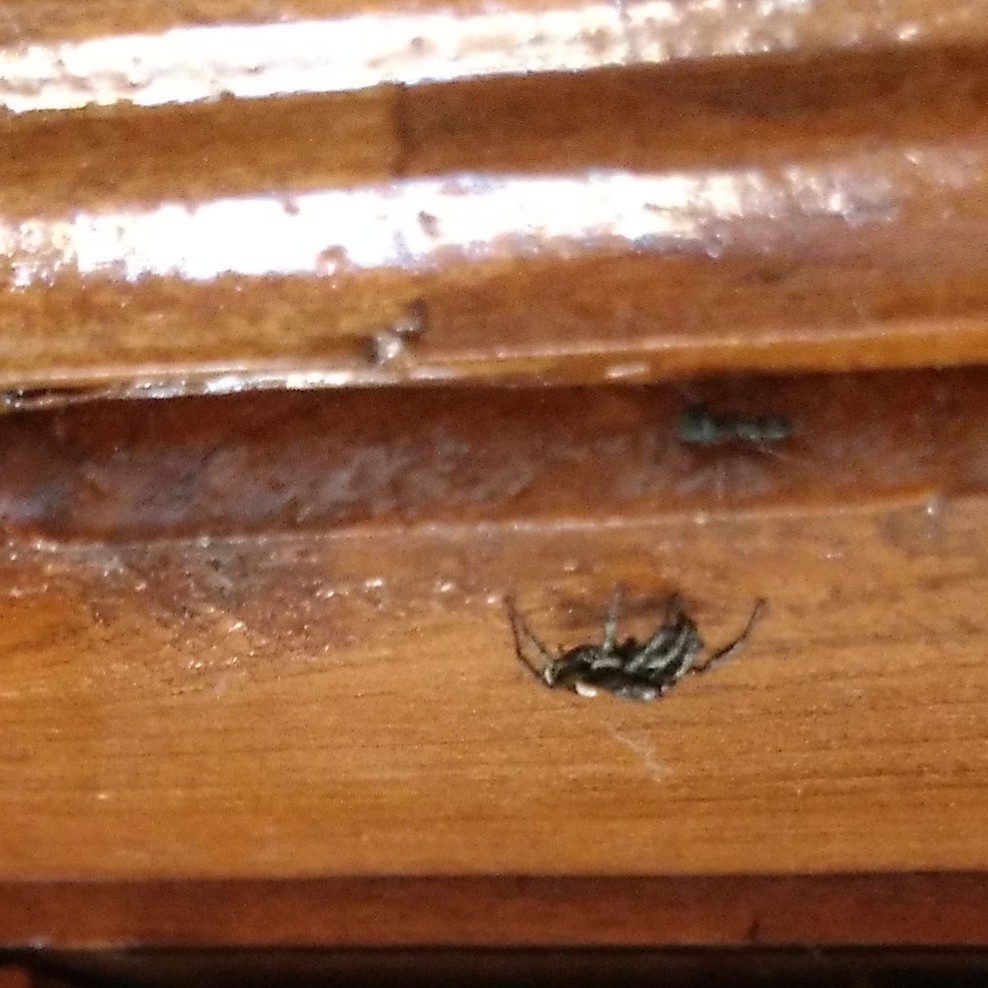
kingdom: Animalia
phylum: Arthropoda
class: Arachnida
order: Araneae
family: Salticidae
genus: Salticus
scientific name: Salticus scenicus
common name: Zebra jumper
